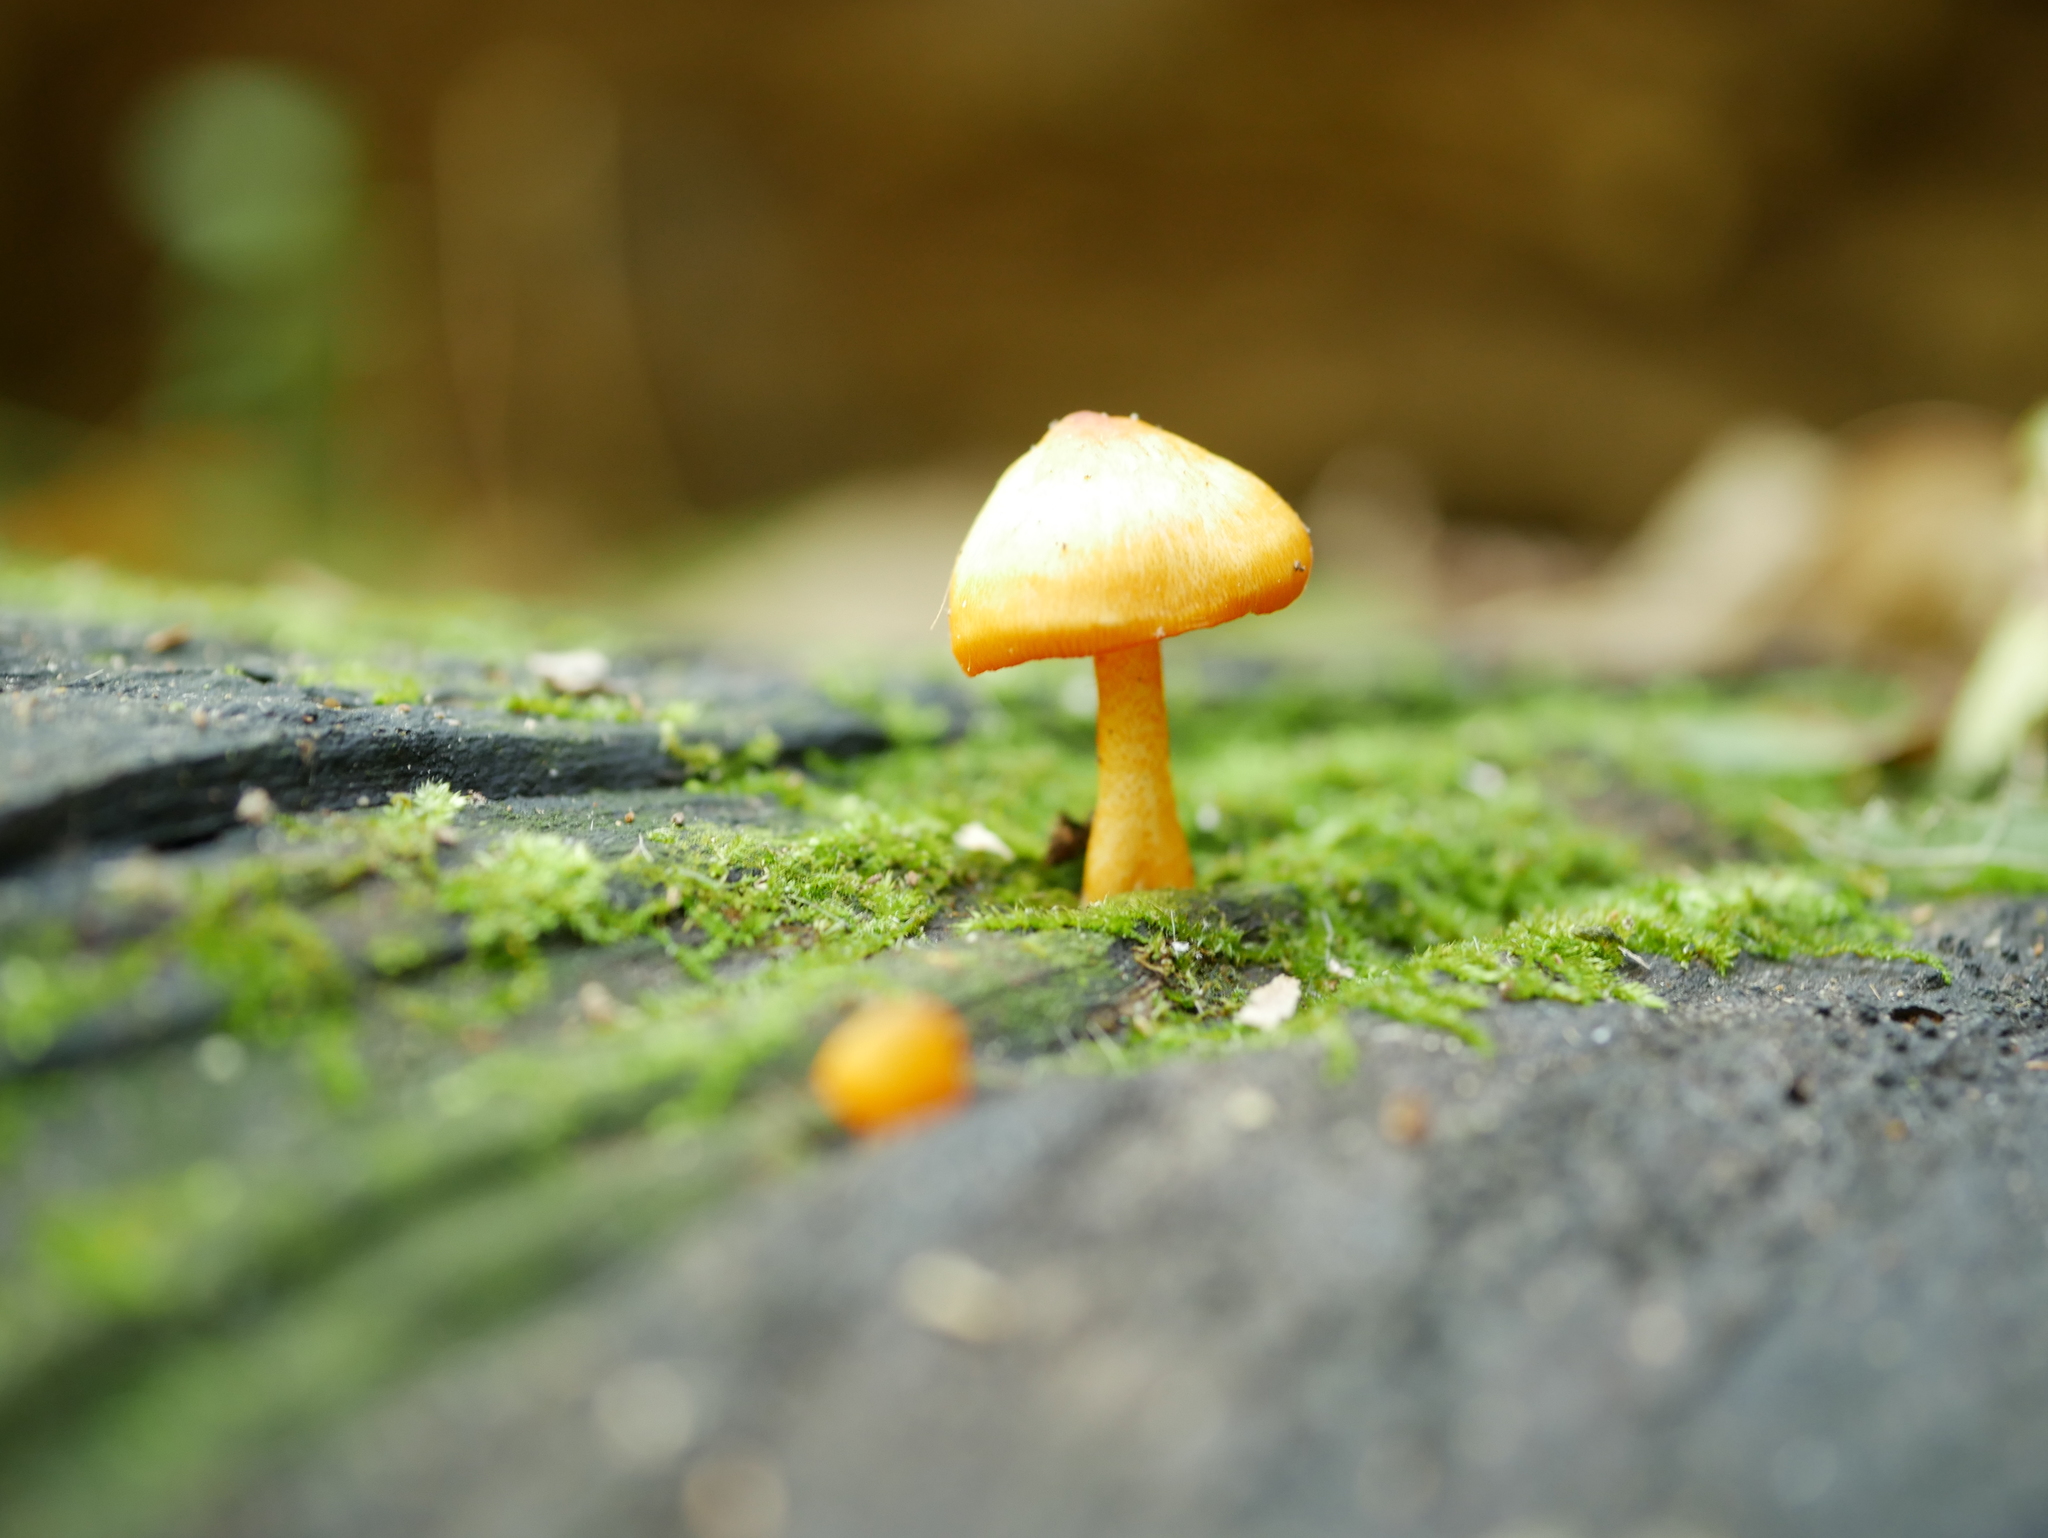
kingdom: Fungi
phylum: Basidiomycota
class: Agaricomycetes
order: Agaricales
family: Mycenaceae
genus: Mycena
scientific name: Mycena leaiana
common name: Orange mycena
